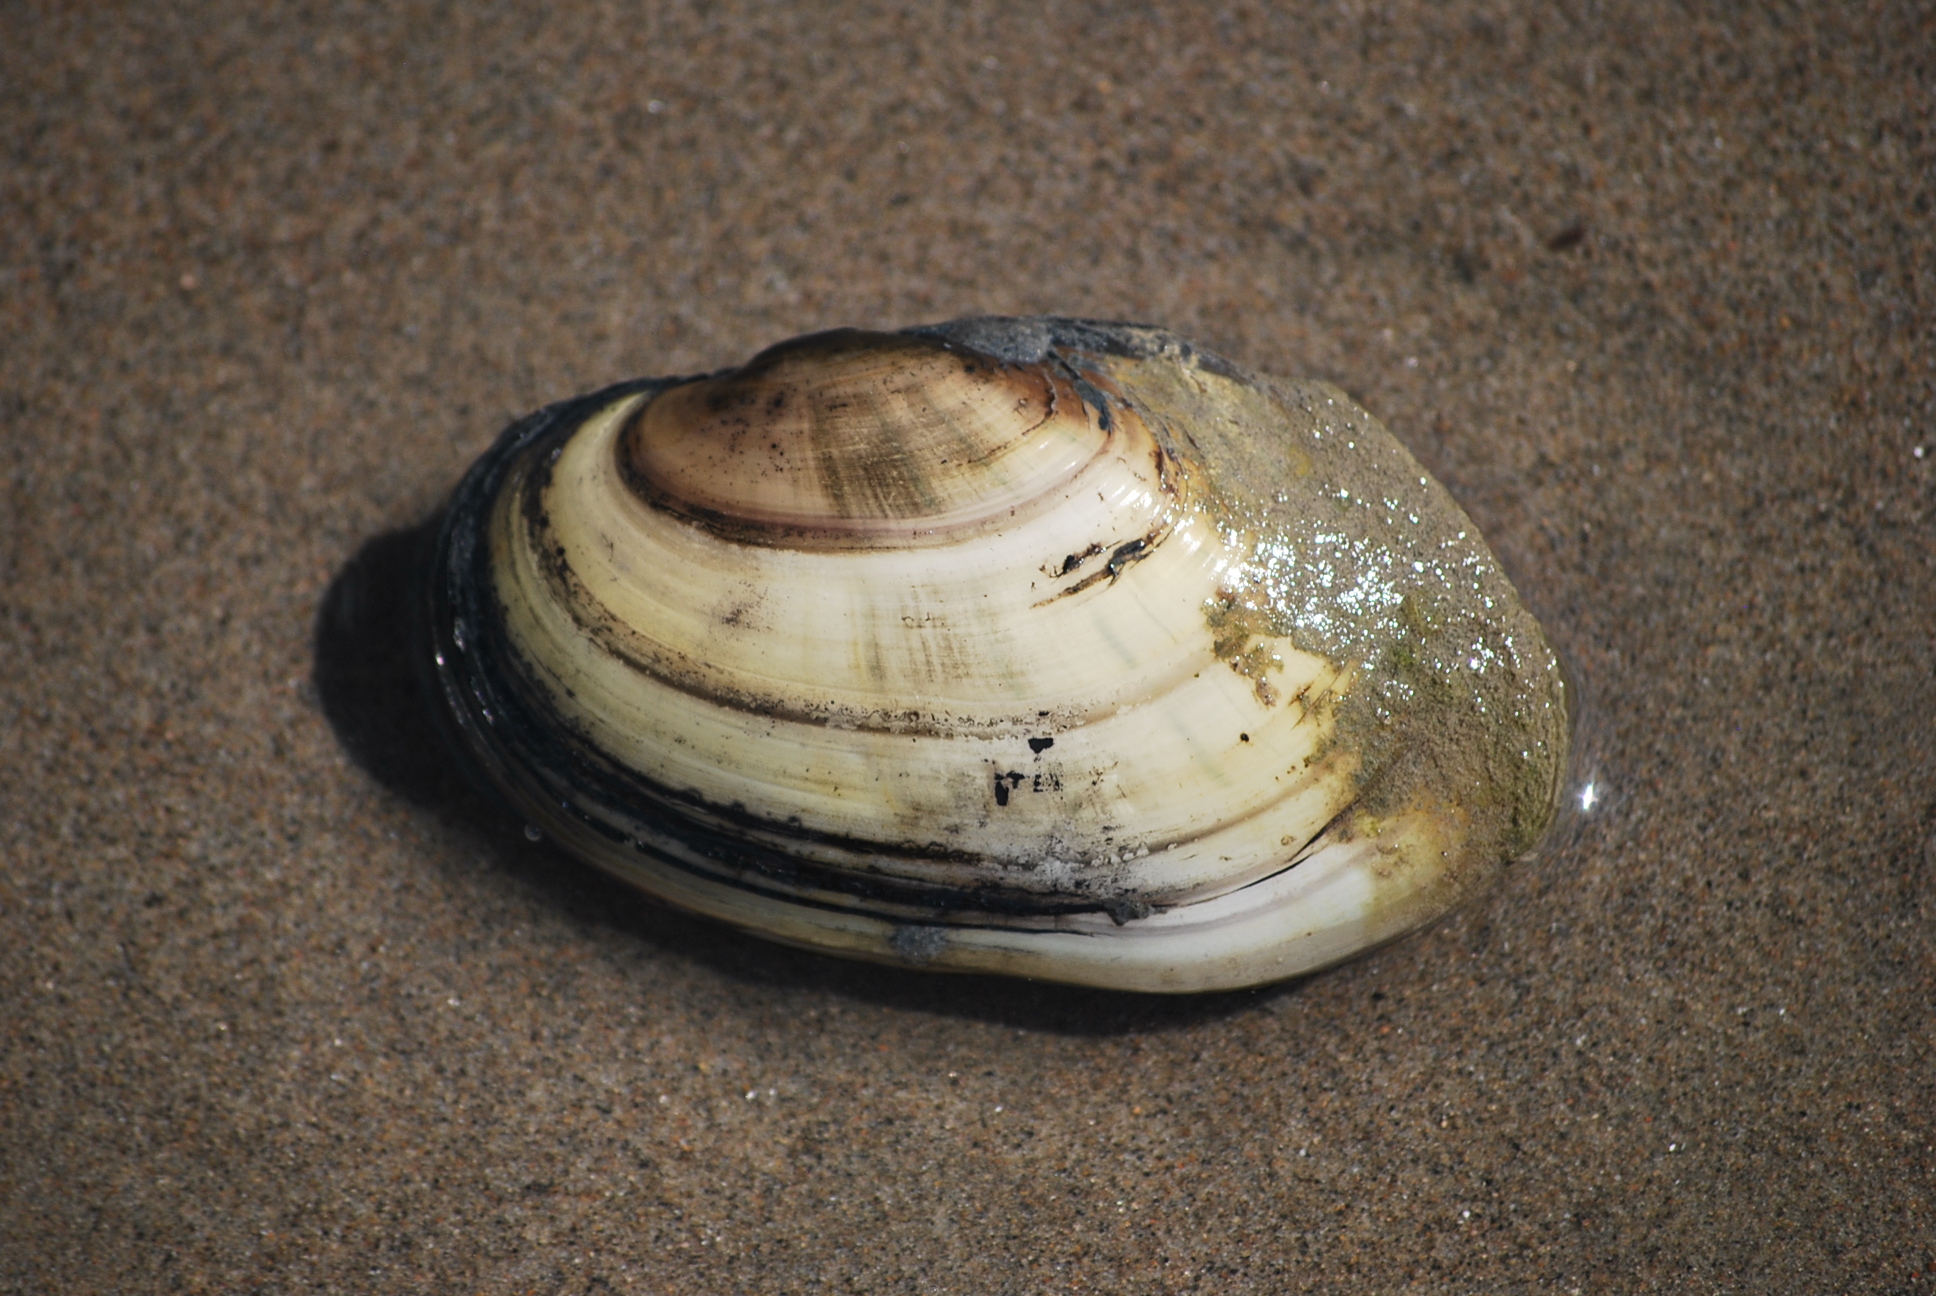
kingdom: Animalia
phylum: Mollusca
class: Bivalvia
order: Unionida
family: Unionidae
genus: Lampsilis
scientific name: Lampsilis siliquoidea
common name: Fatmucket
